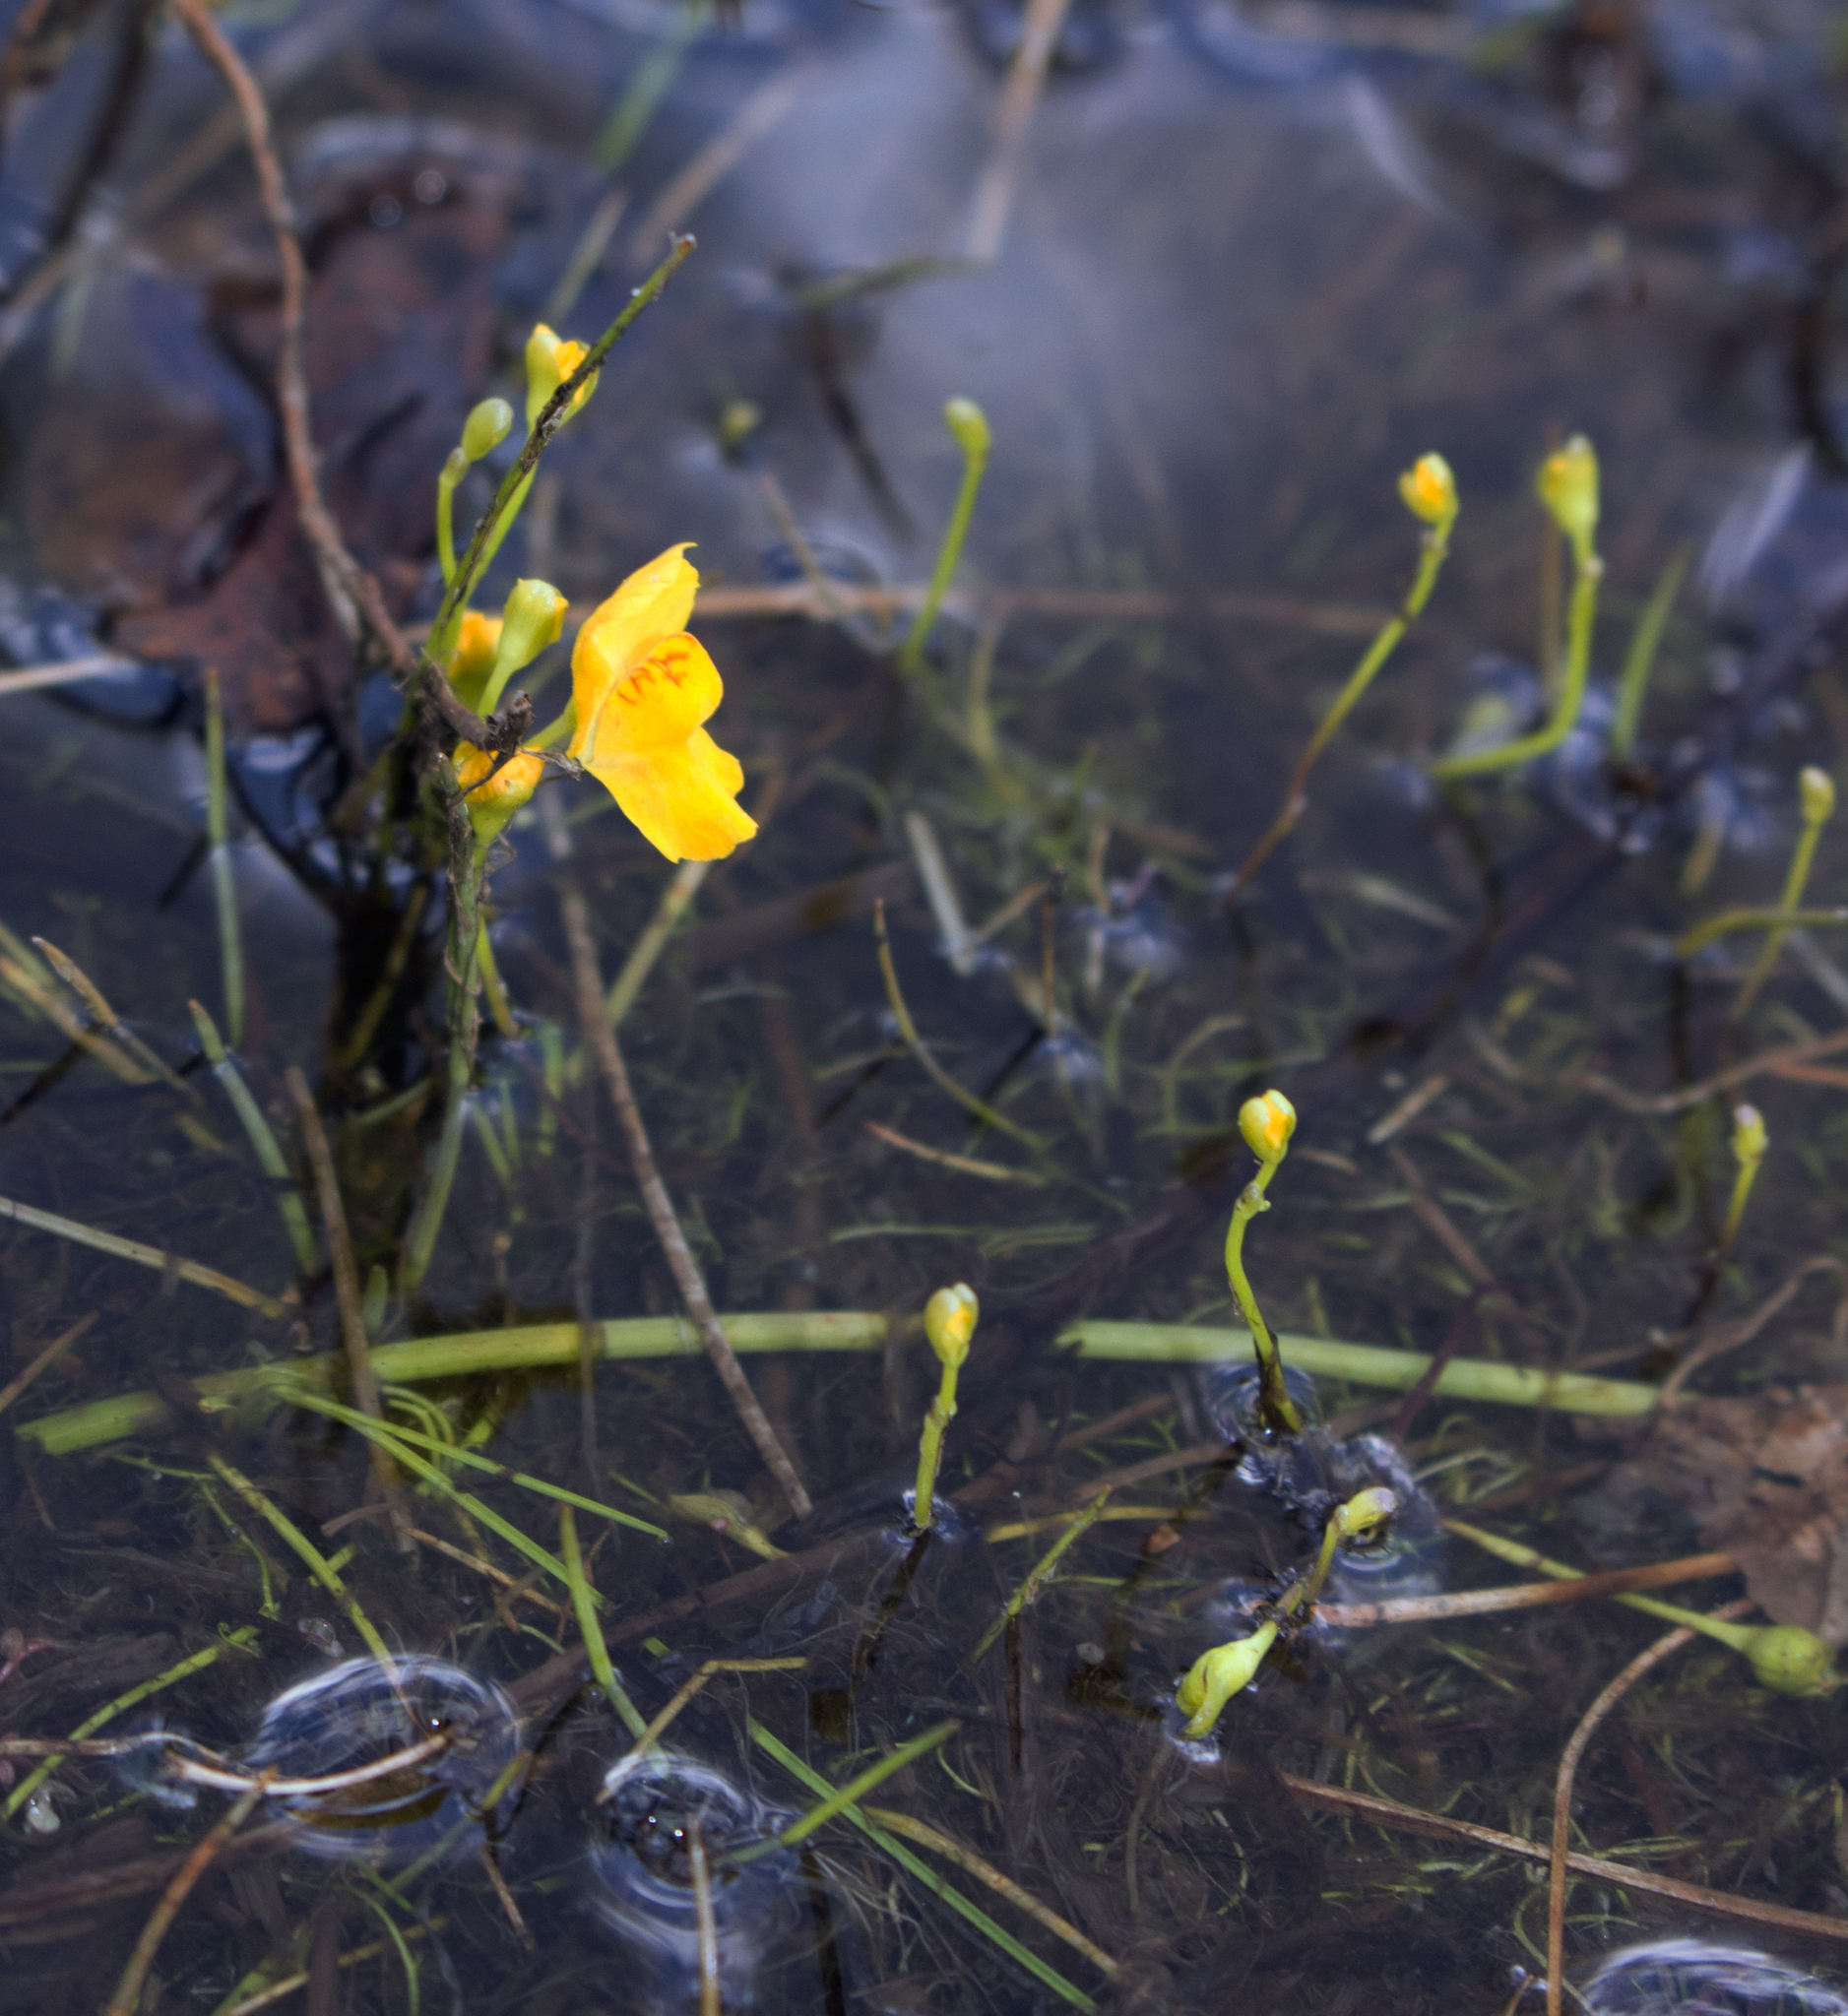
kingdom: Plantae
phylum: Tracheophyta
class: Magnoliopsida
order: Lamiales
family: Lentibulariaceae
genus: Utricularia
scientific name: Utricularia gibba
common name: Humped bladderwort
